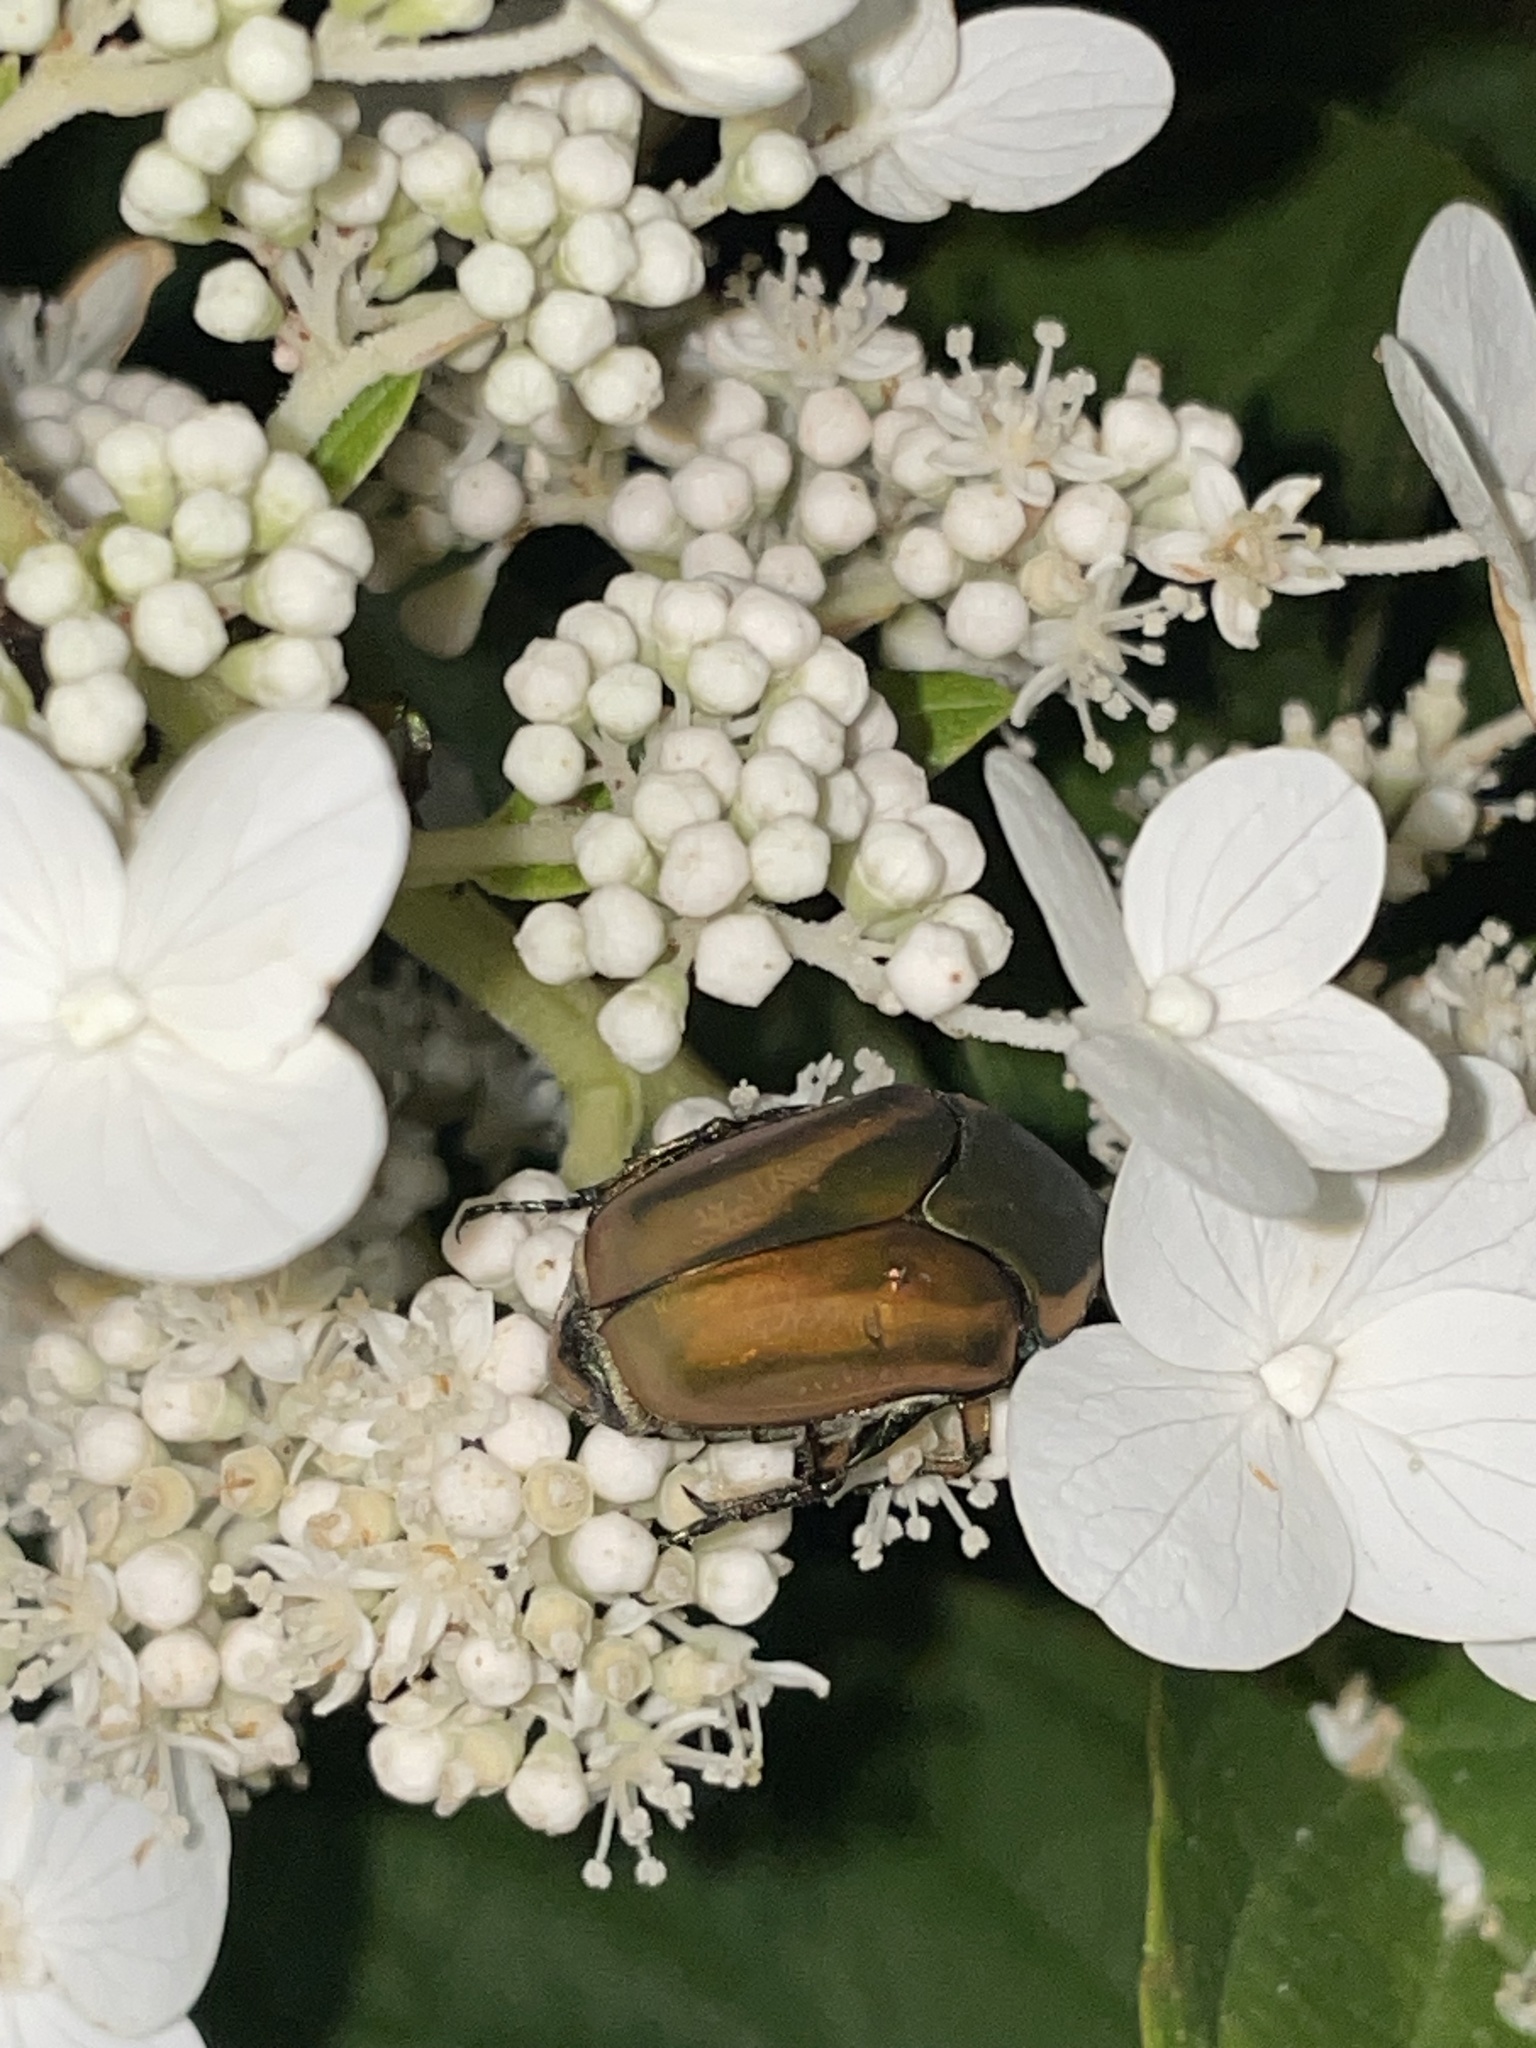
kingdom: Animalia
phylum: Arthropoda
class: Insecta
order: Coleoptera
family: Scarabaeidae
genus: Cotinis
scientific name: Cotinis nitida
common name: Common green june beetle
